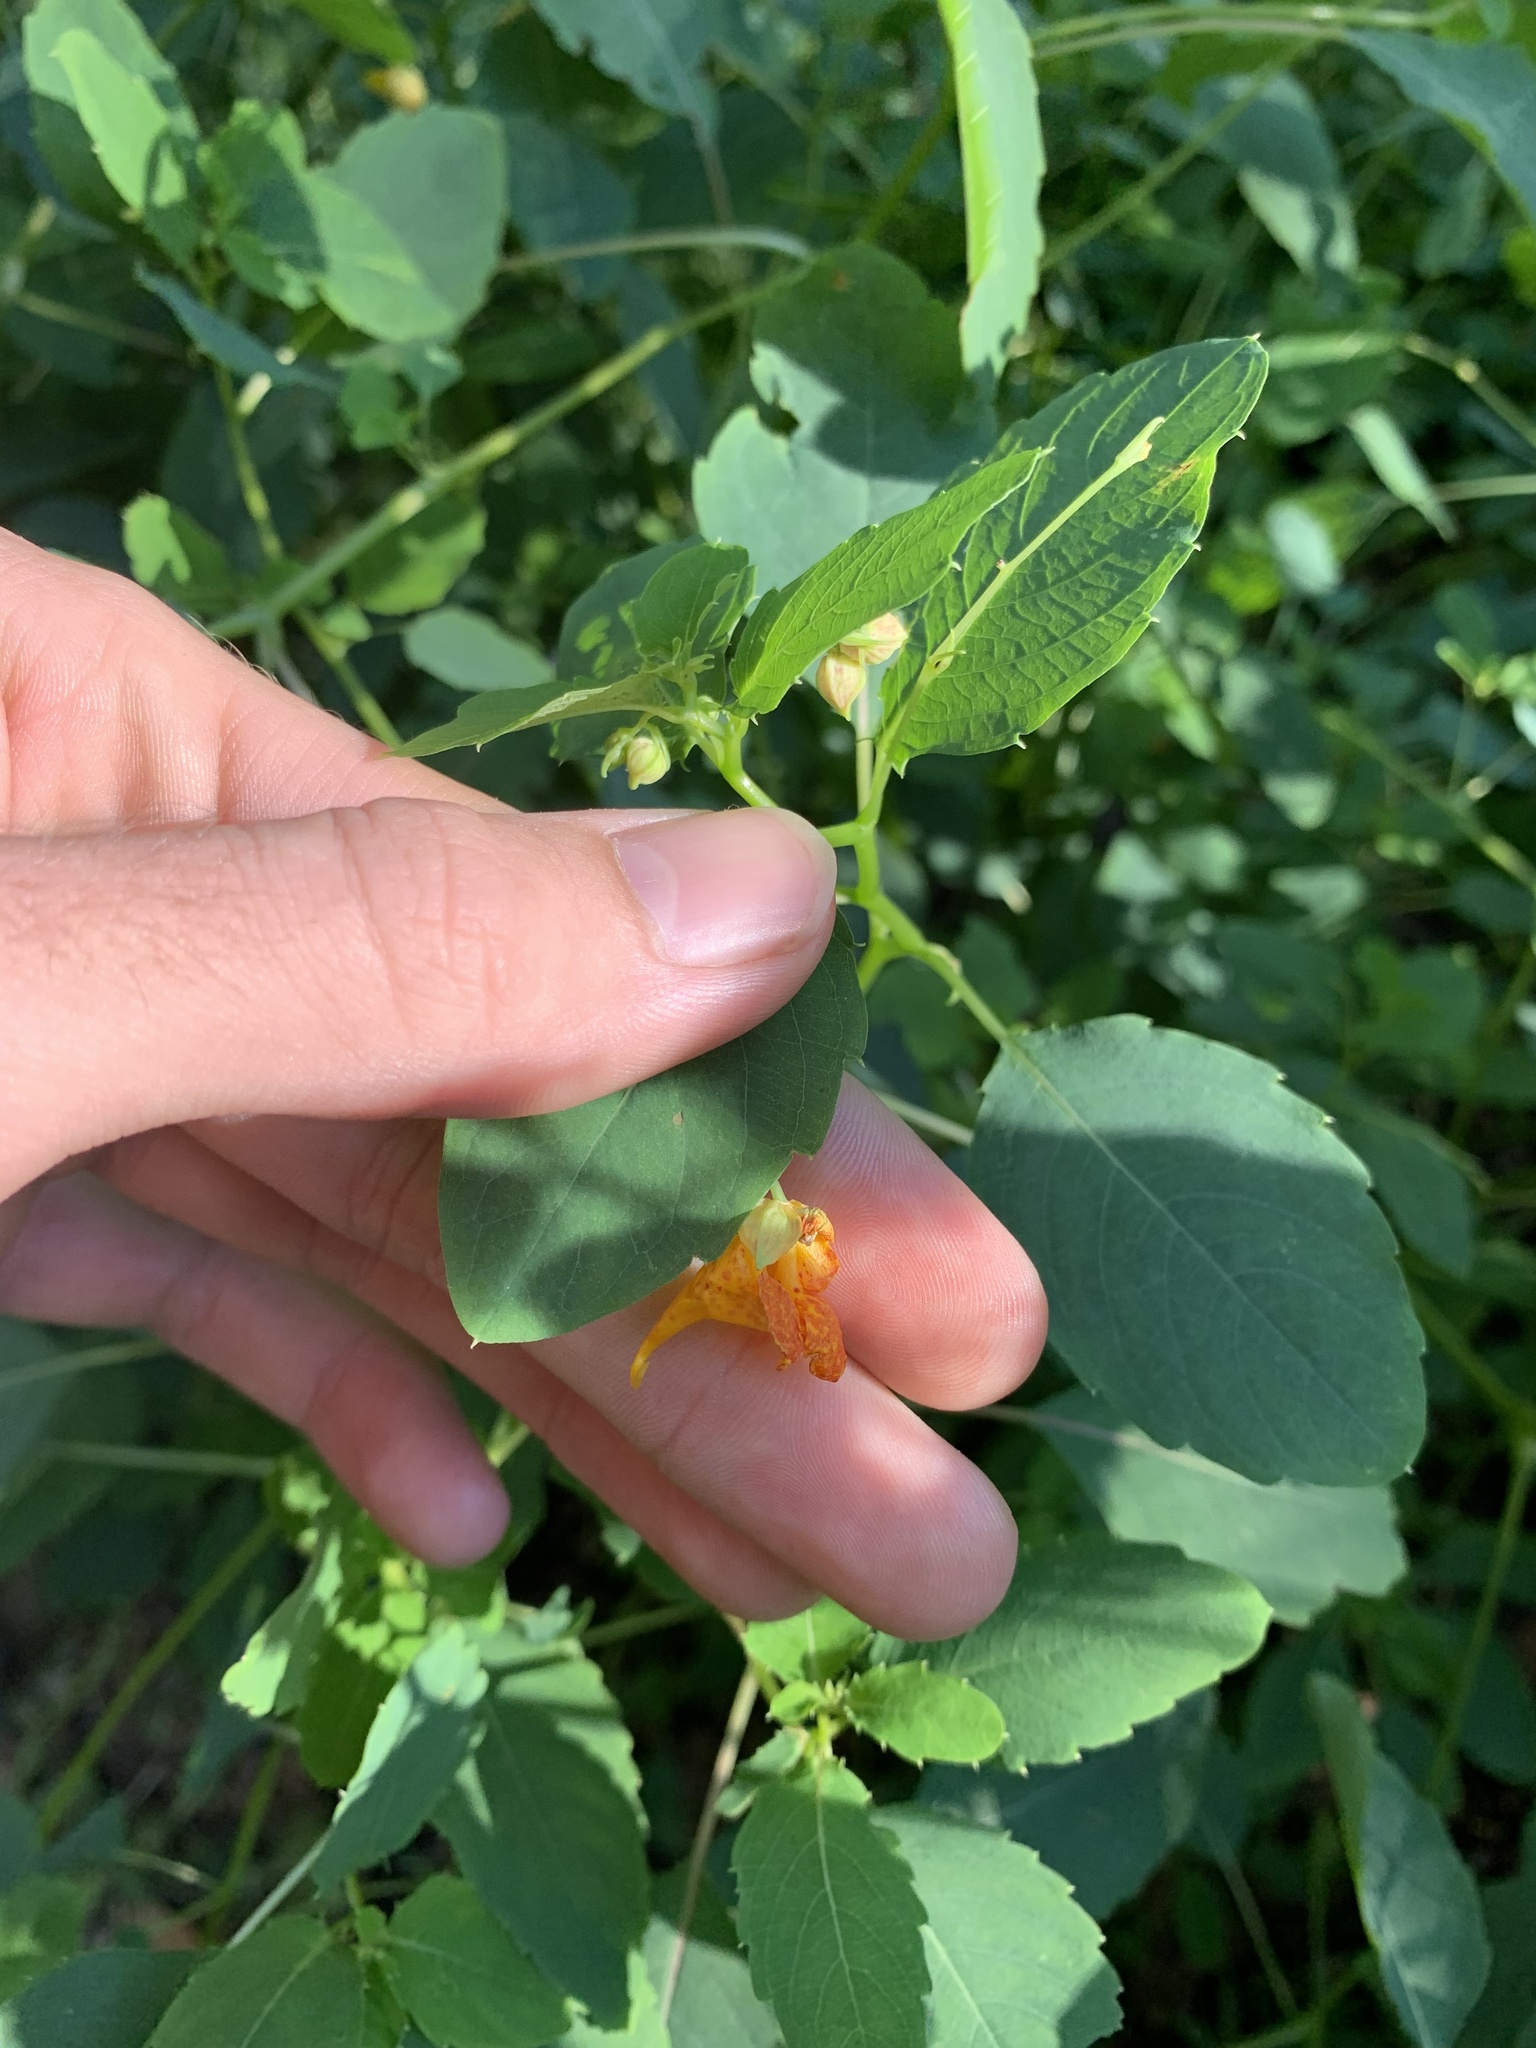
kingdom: Plantae
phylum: Tracheophyta
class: Magnoliopsida
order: Ericales
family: Balsaminaceae
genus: Impatiens
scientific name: Impatiens capensis
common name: Orange balsam
